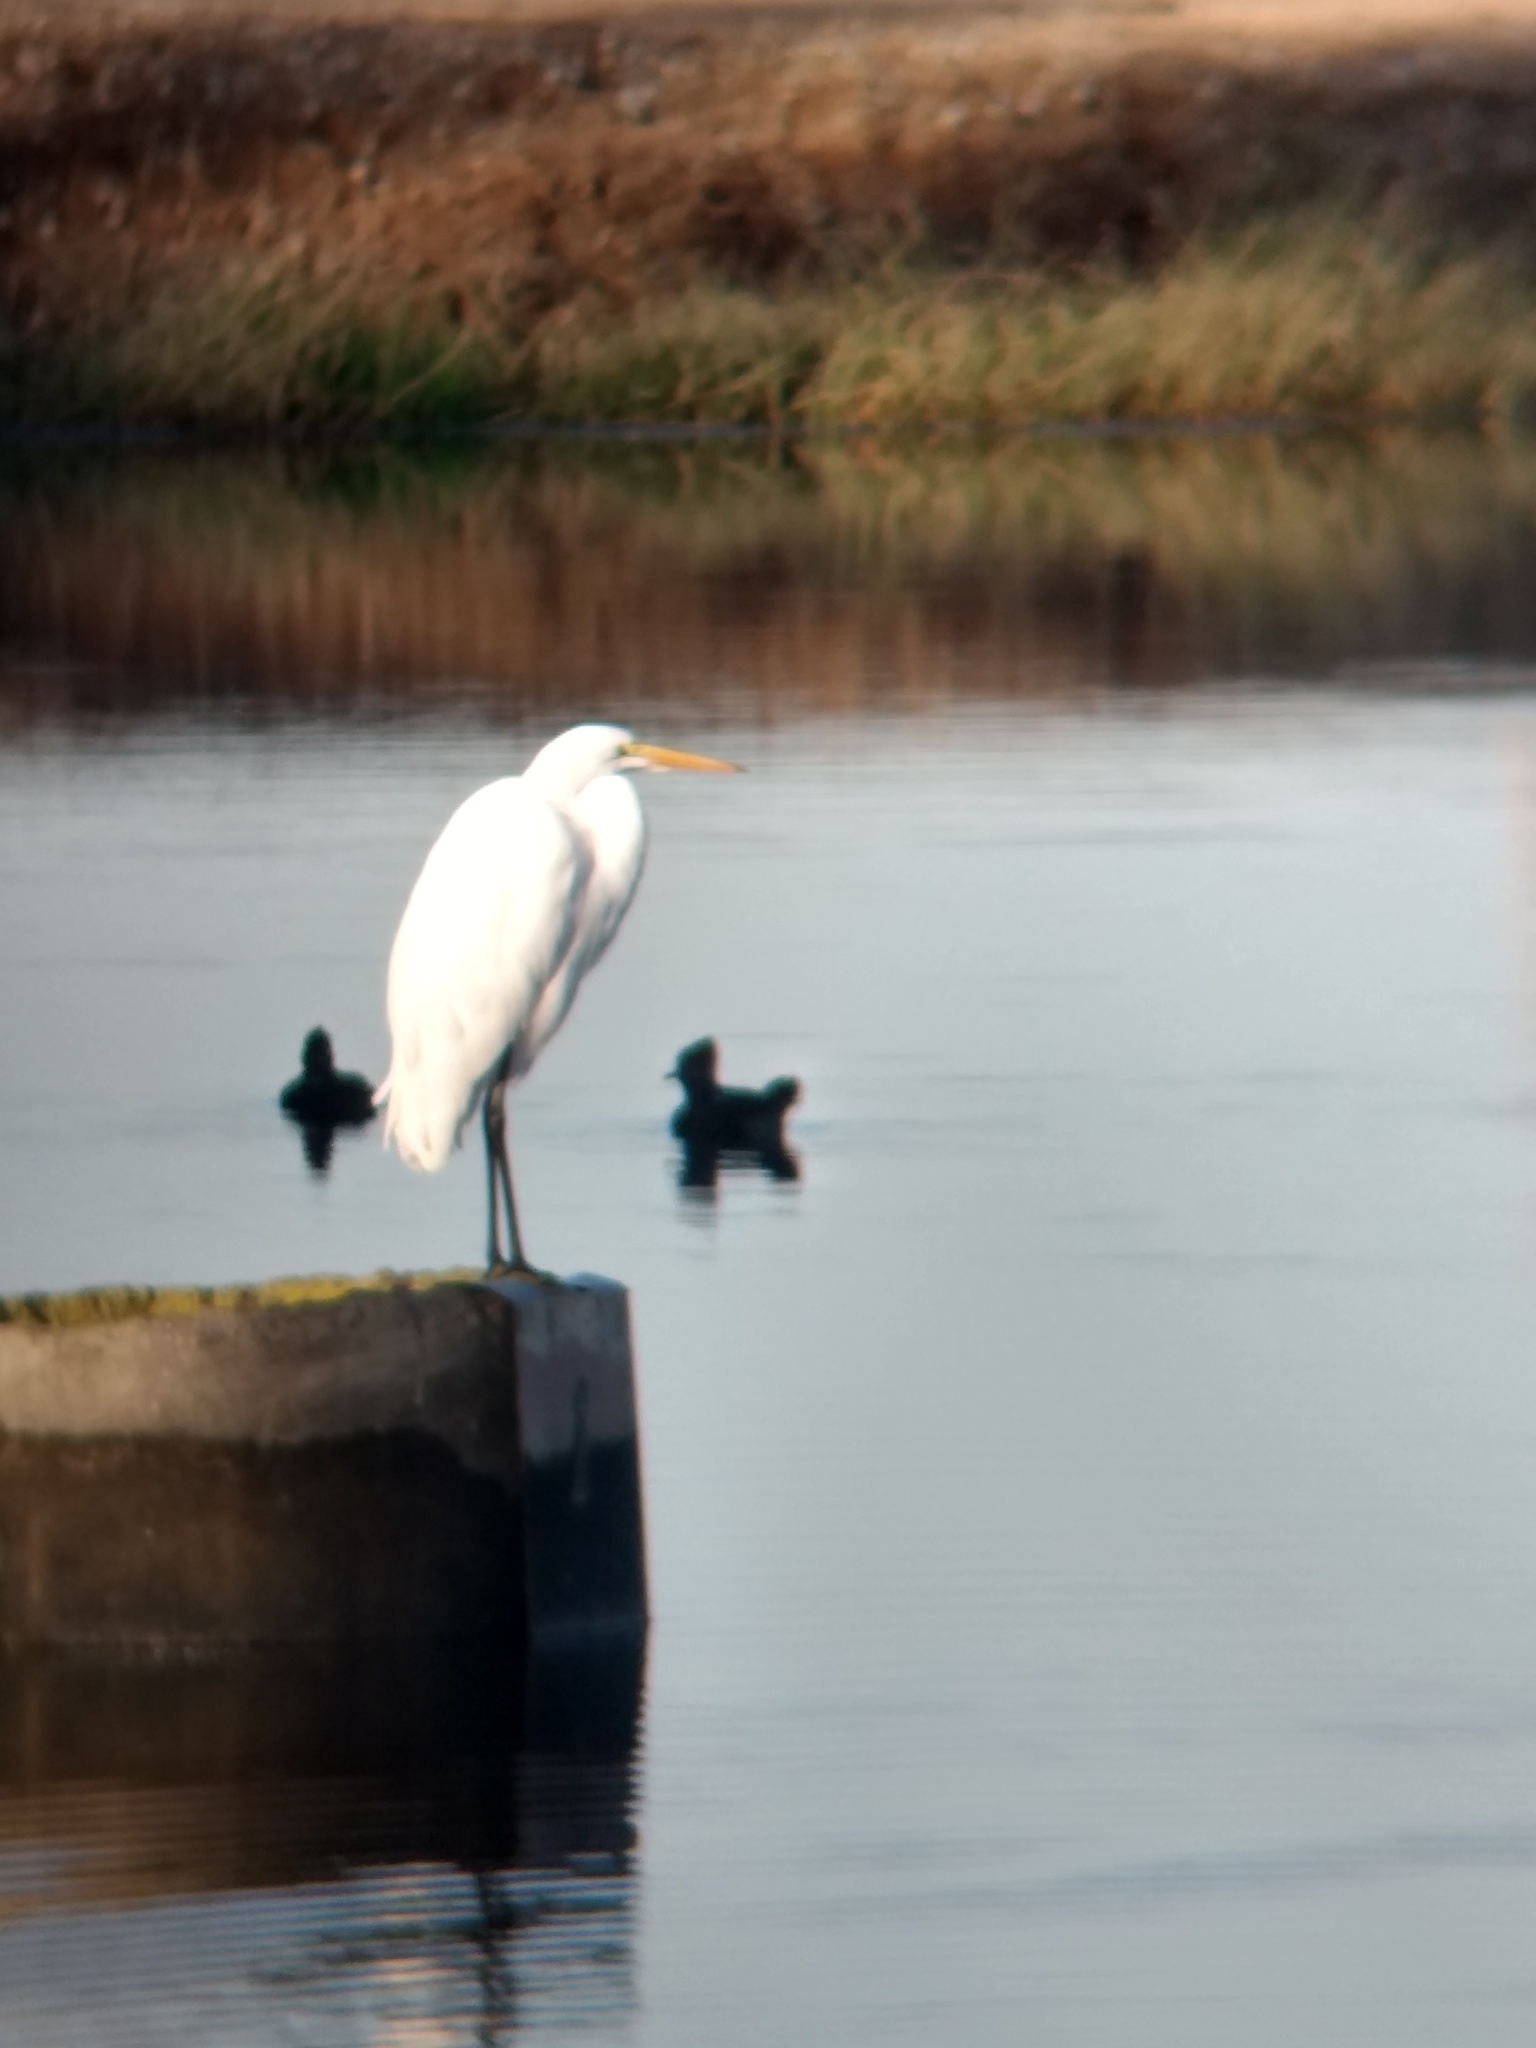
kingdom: Animalia
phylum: Chordata
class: Aves
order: Pelecaniformes
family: Ardeidae
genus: Ardea
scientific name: Ardea alba
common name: Great egret
